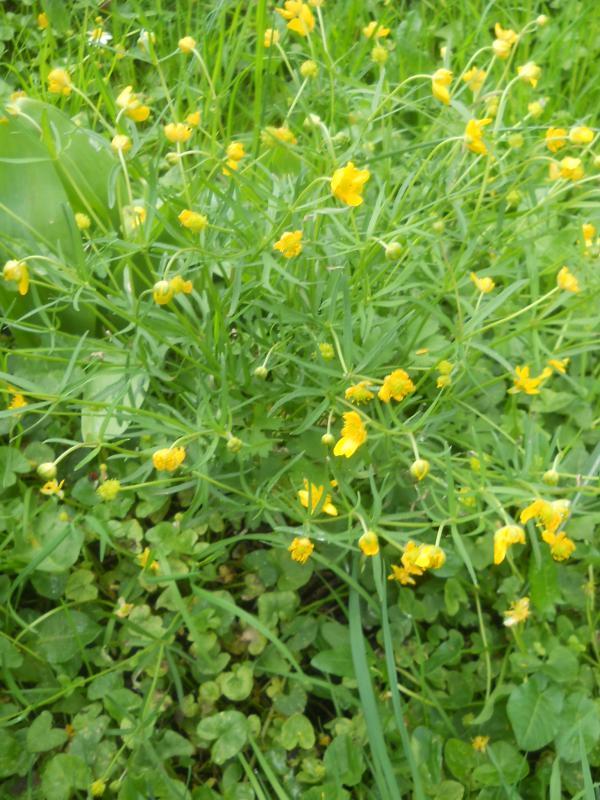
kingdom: Plantae
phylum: Tracheophyta
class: Magnoliopsida
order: Ranunculales
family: Ranunculaceae
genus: Ranunculus
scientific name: Ranunculus auricomus
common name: Goldilocks buttercup
